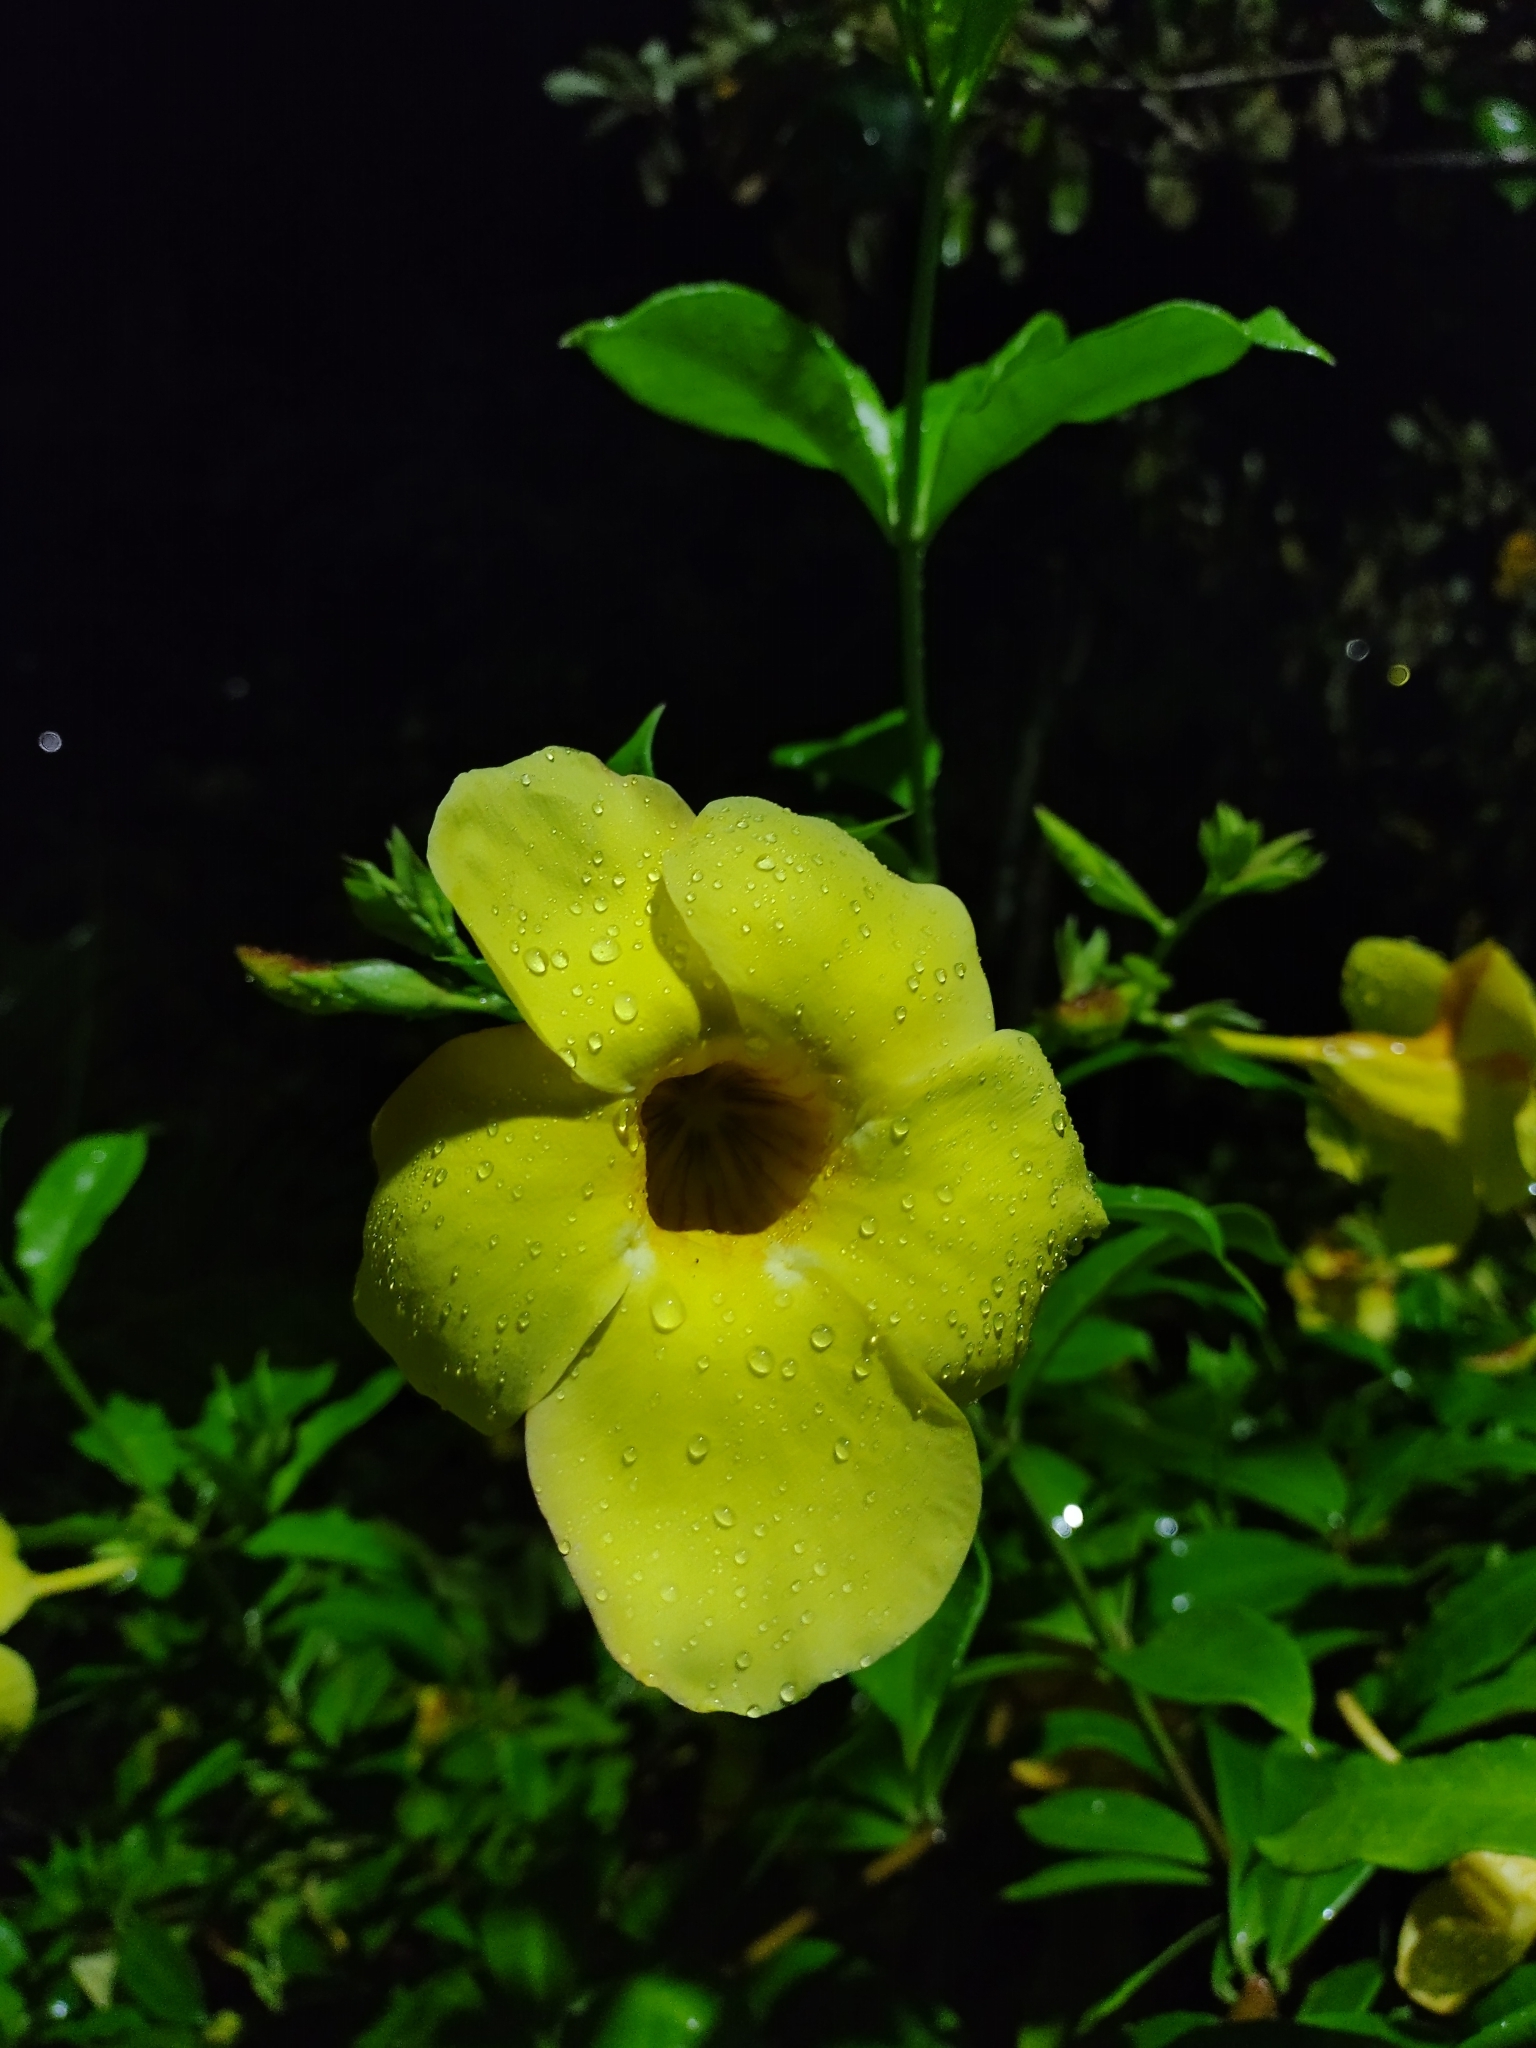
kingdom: Plantae
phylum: Tracheophyta
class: Magnoliopsida
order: Gentianales
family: Apocynaceae
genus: Allamanda
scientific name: Allamanda cathartica
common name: Golden trumpet
